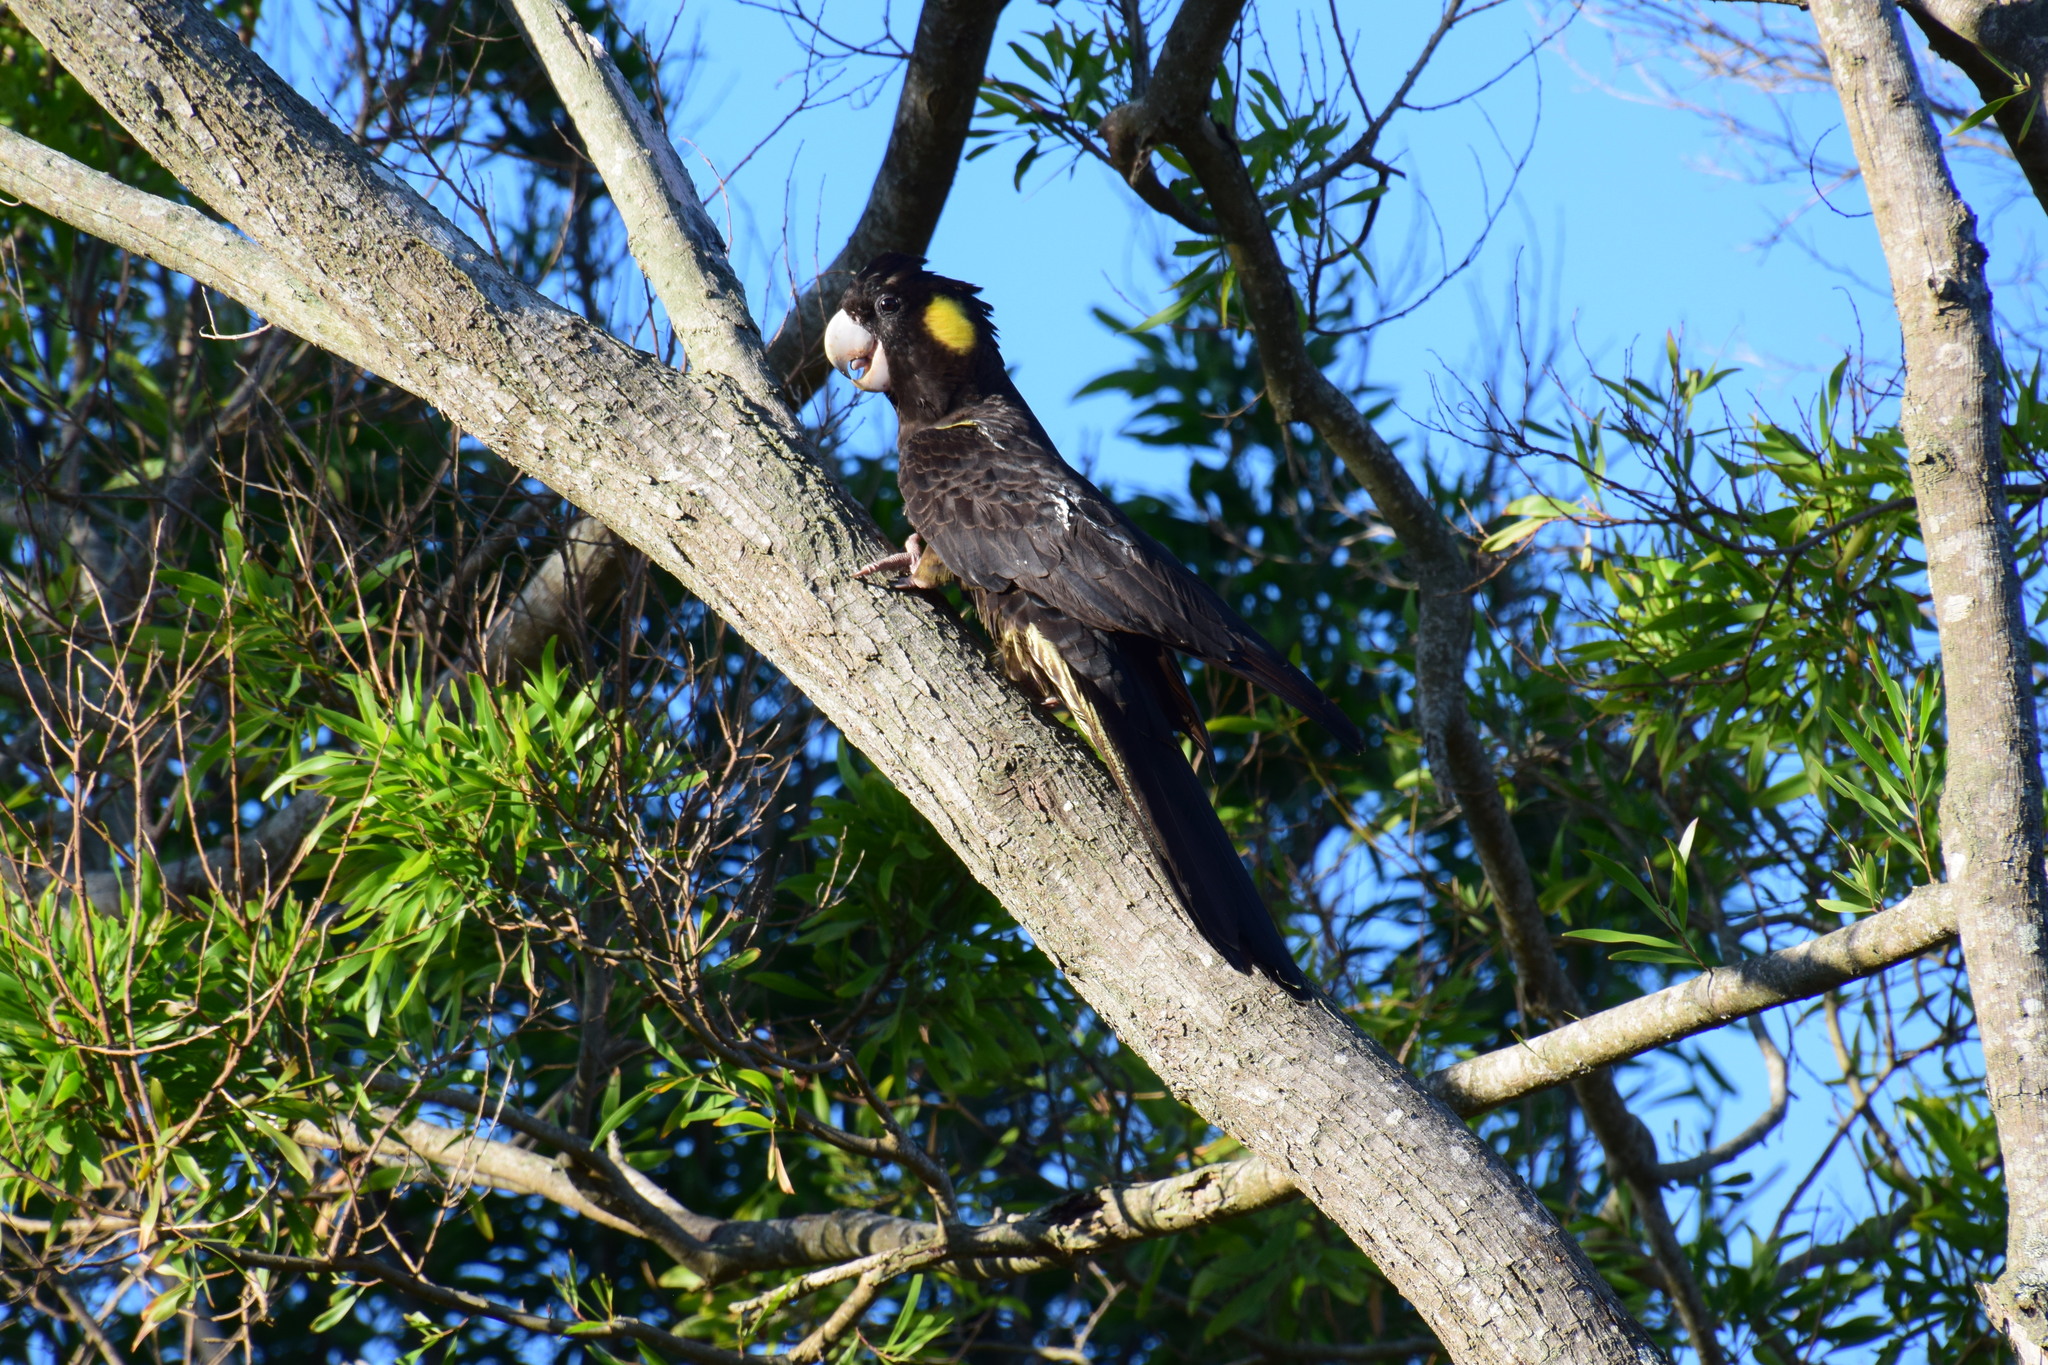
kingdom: Animalia
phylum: Chordata
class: Aves
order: Psittaciformes
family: Cacatuidae
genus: Zanda
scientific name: Zanda funerea
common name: Yellow-tailed black-cockatoo
